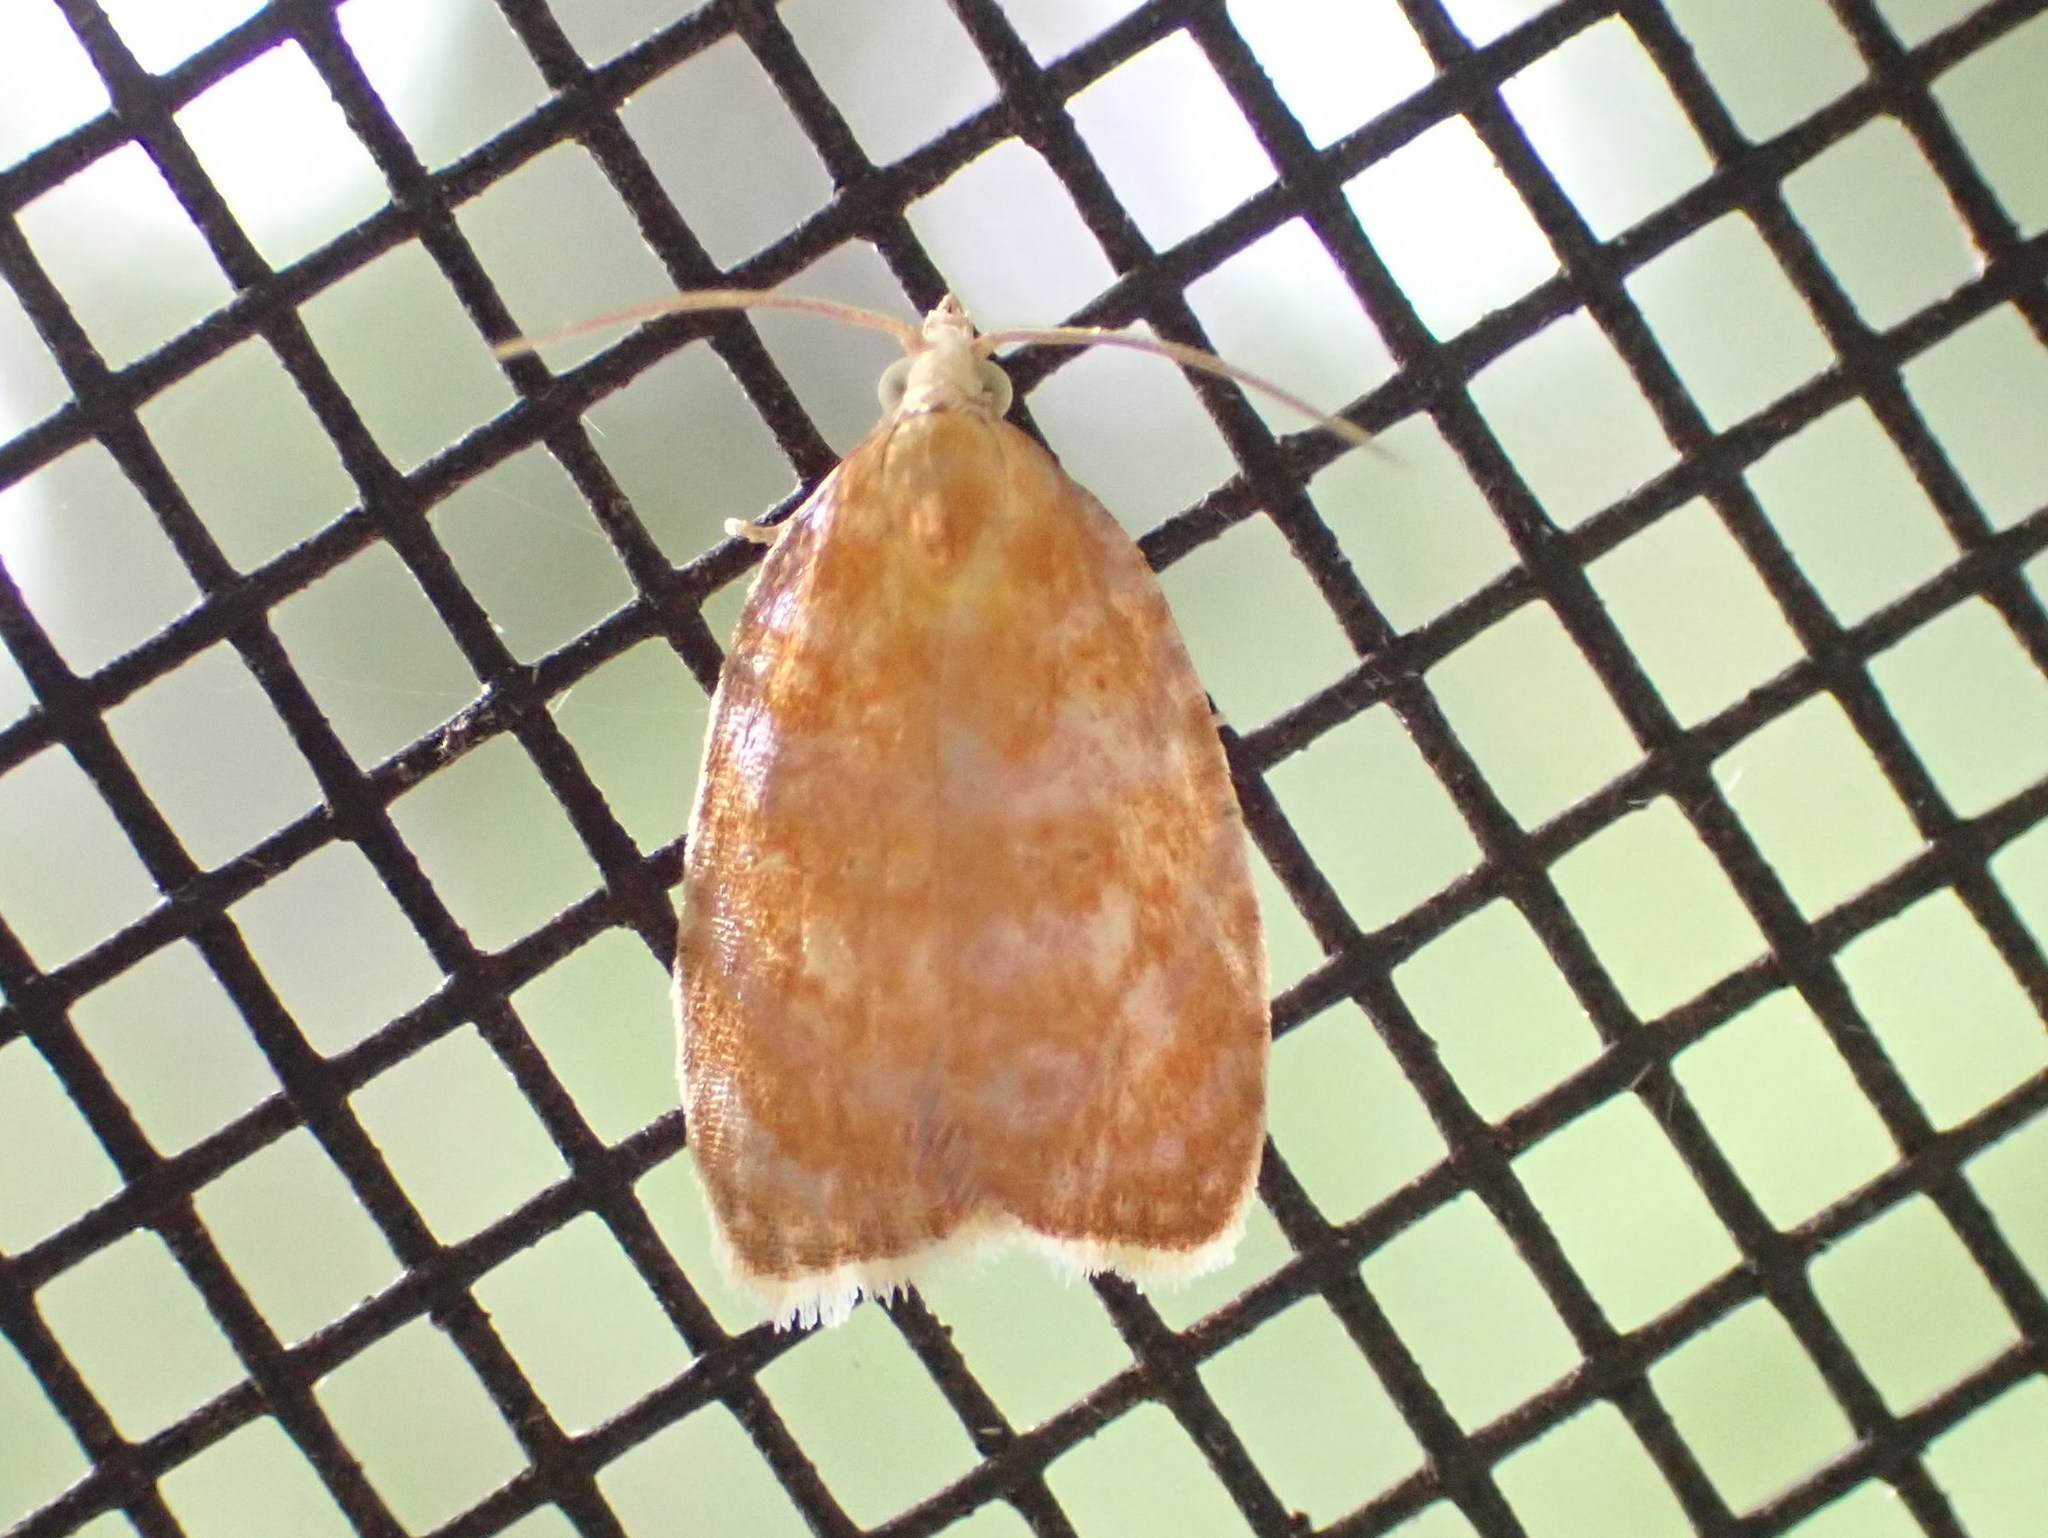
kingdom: Animalia
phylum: Arthropoda
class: Insecta
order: Lepidoptera
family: Tortricidae
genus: Acleris
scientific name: Acleris curvalana
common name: Blueberry leaftier moth
